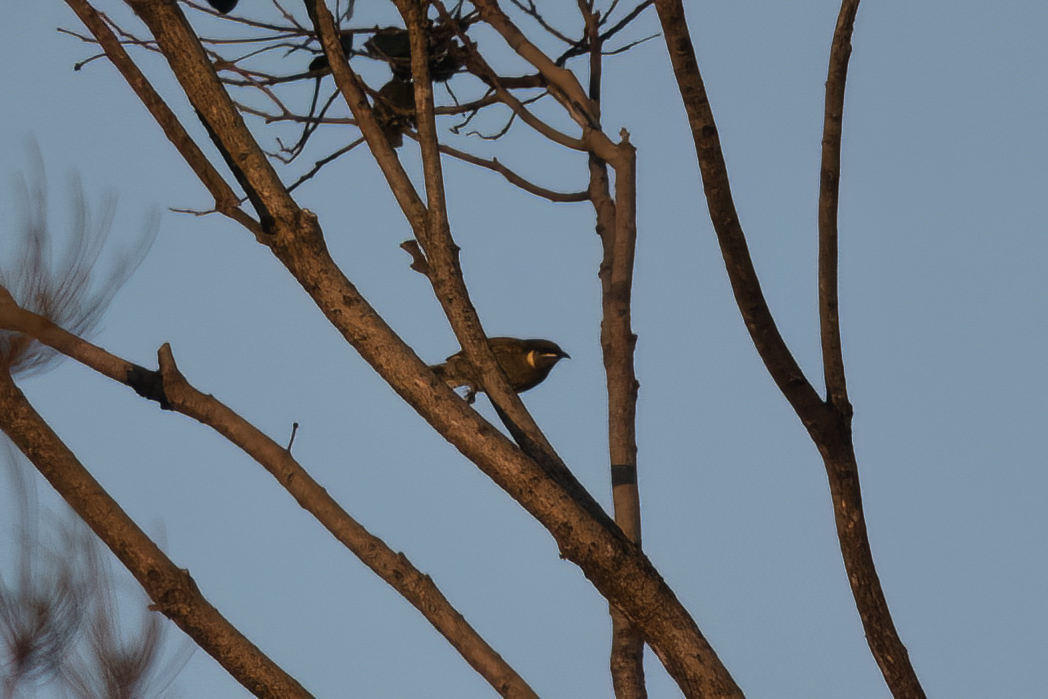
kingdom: Animalia
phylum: Chordata
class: Aves
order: Passeriformes
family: Meliphagidae
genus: Meliphaga
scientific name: Meliphaga lewinii
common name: Lewin's honeyeater
